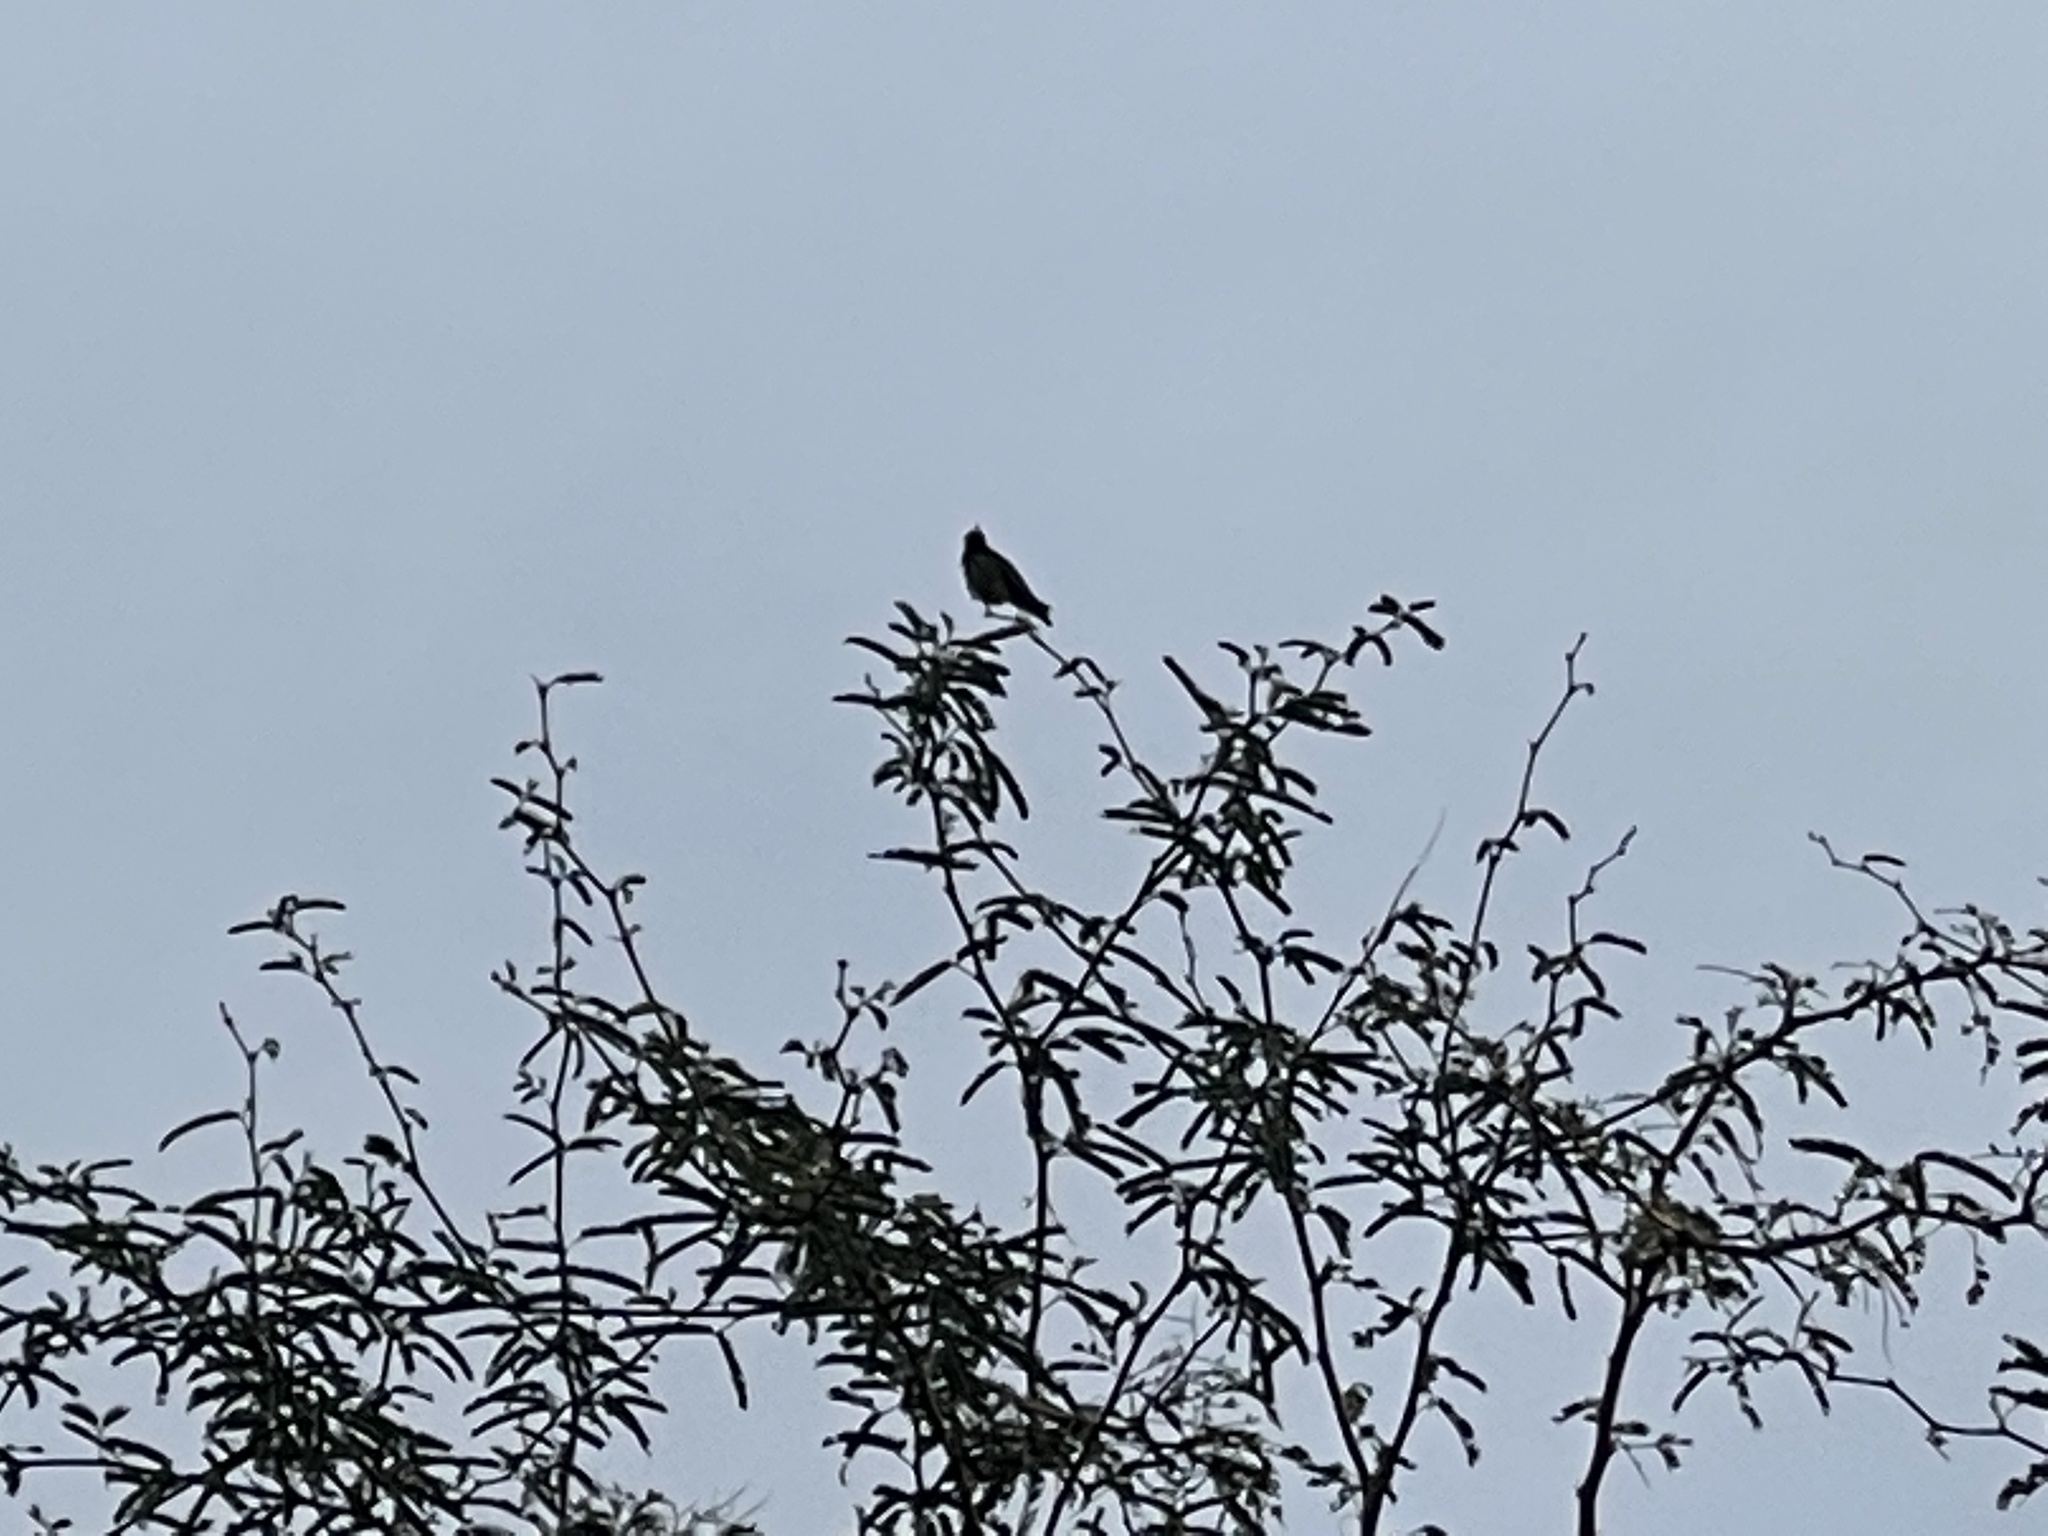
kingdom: Animalia
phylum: Chordata
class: Aves
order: Apodiformes
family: Trochilidae
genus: Calypte
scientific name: Calypte anna
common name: Anna's hummingbird
